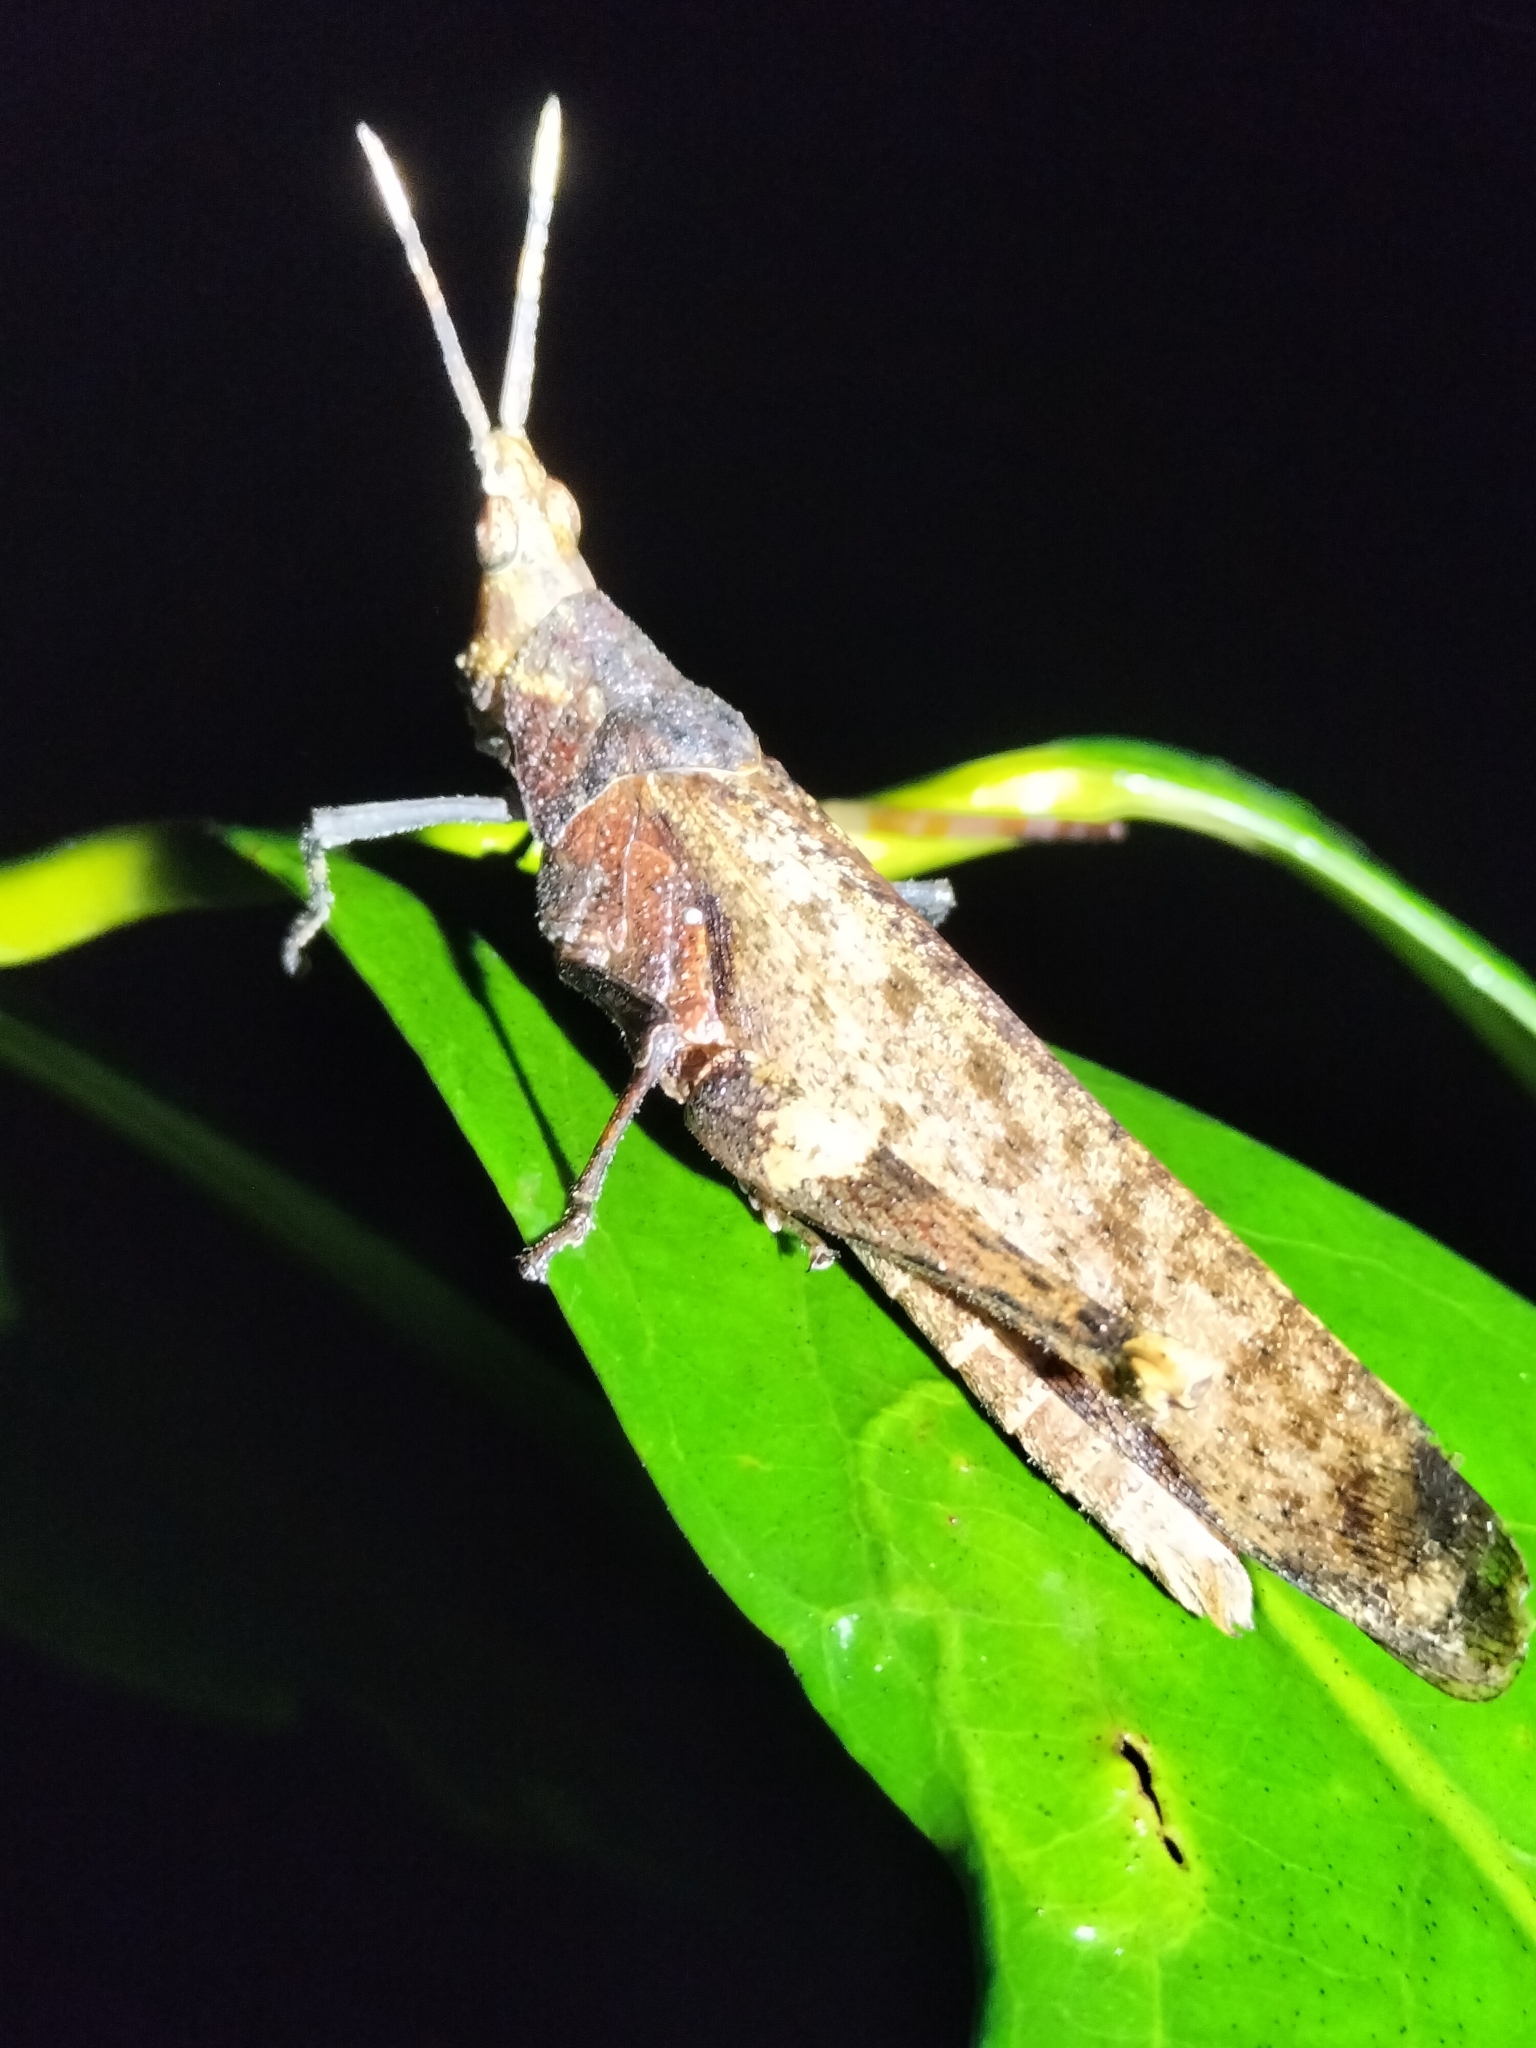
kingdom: Animalia
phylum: Arthropoda
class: Insecta
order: Orthoptera
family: Pyrgomorphidae
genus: Desmoptera
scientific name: Desmoptera truncatipennis
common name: Large forest pyrgomorph
